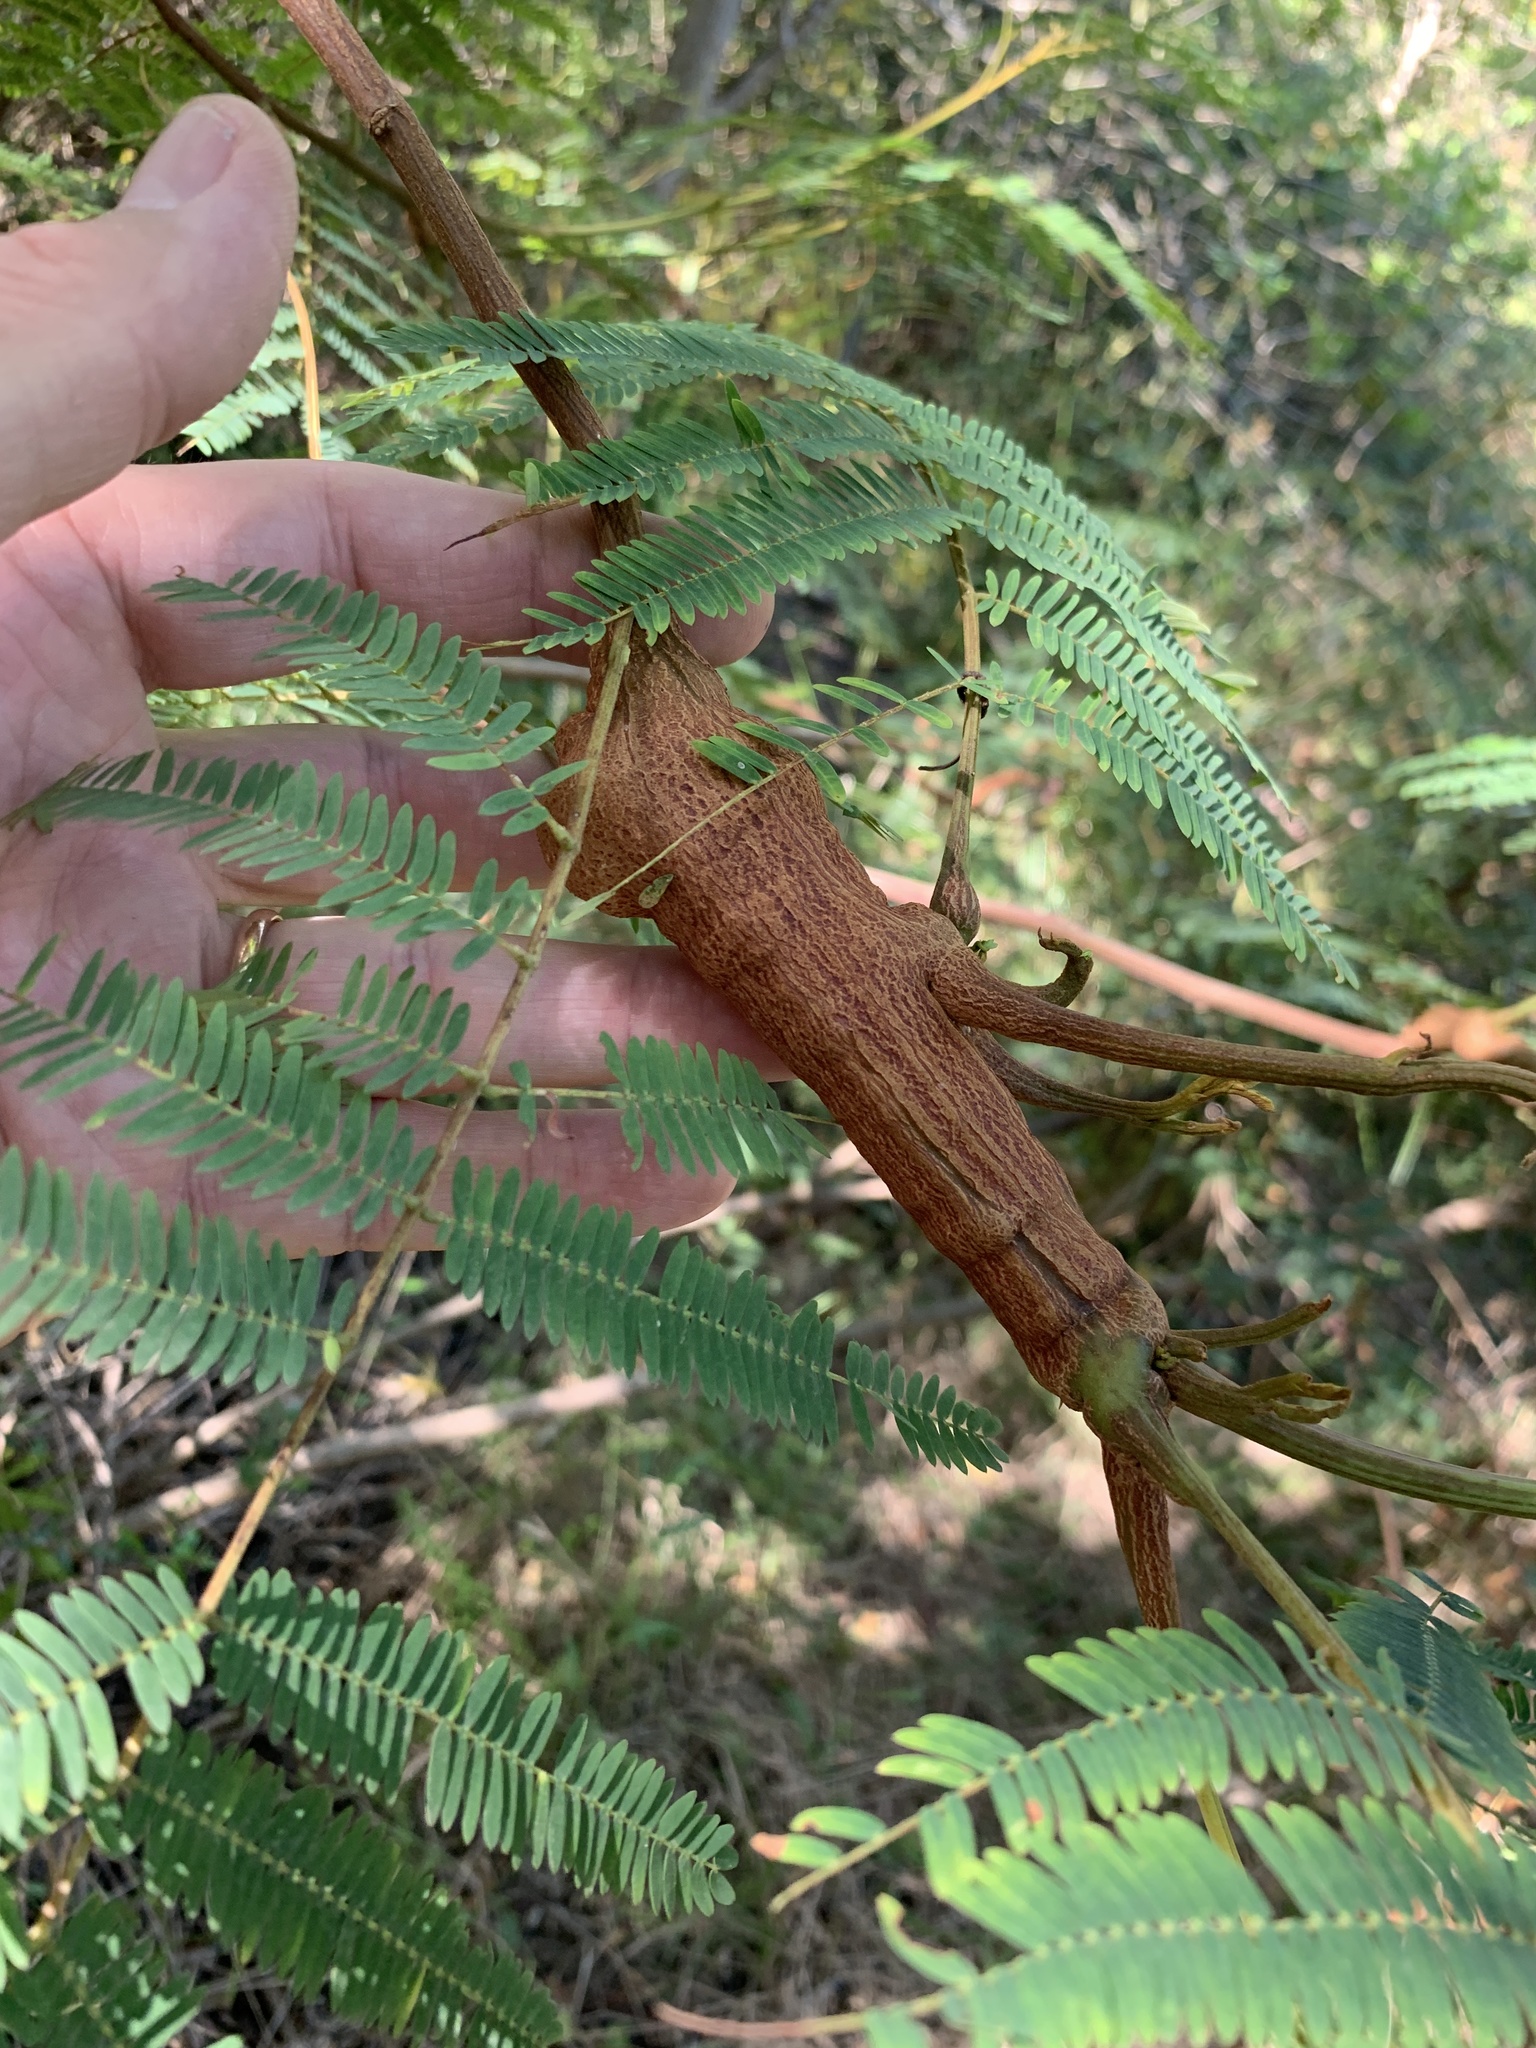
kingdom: Plantae
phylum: Tracheophyta
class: Magnoliopsida
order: Fabales
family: Fabaceae
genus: Paraserianthes
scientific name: Paraserianthes lophantha
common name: Plume albizia
